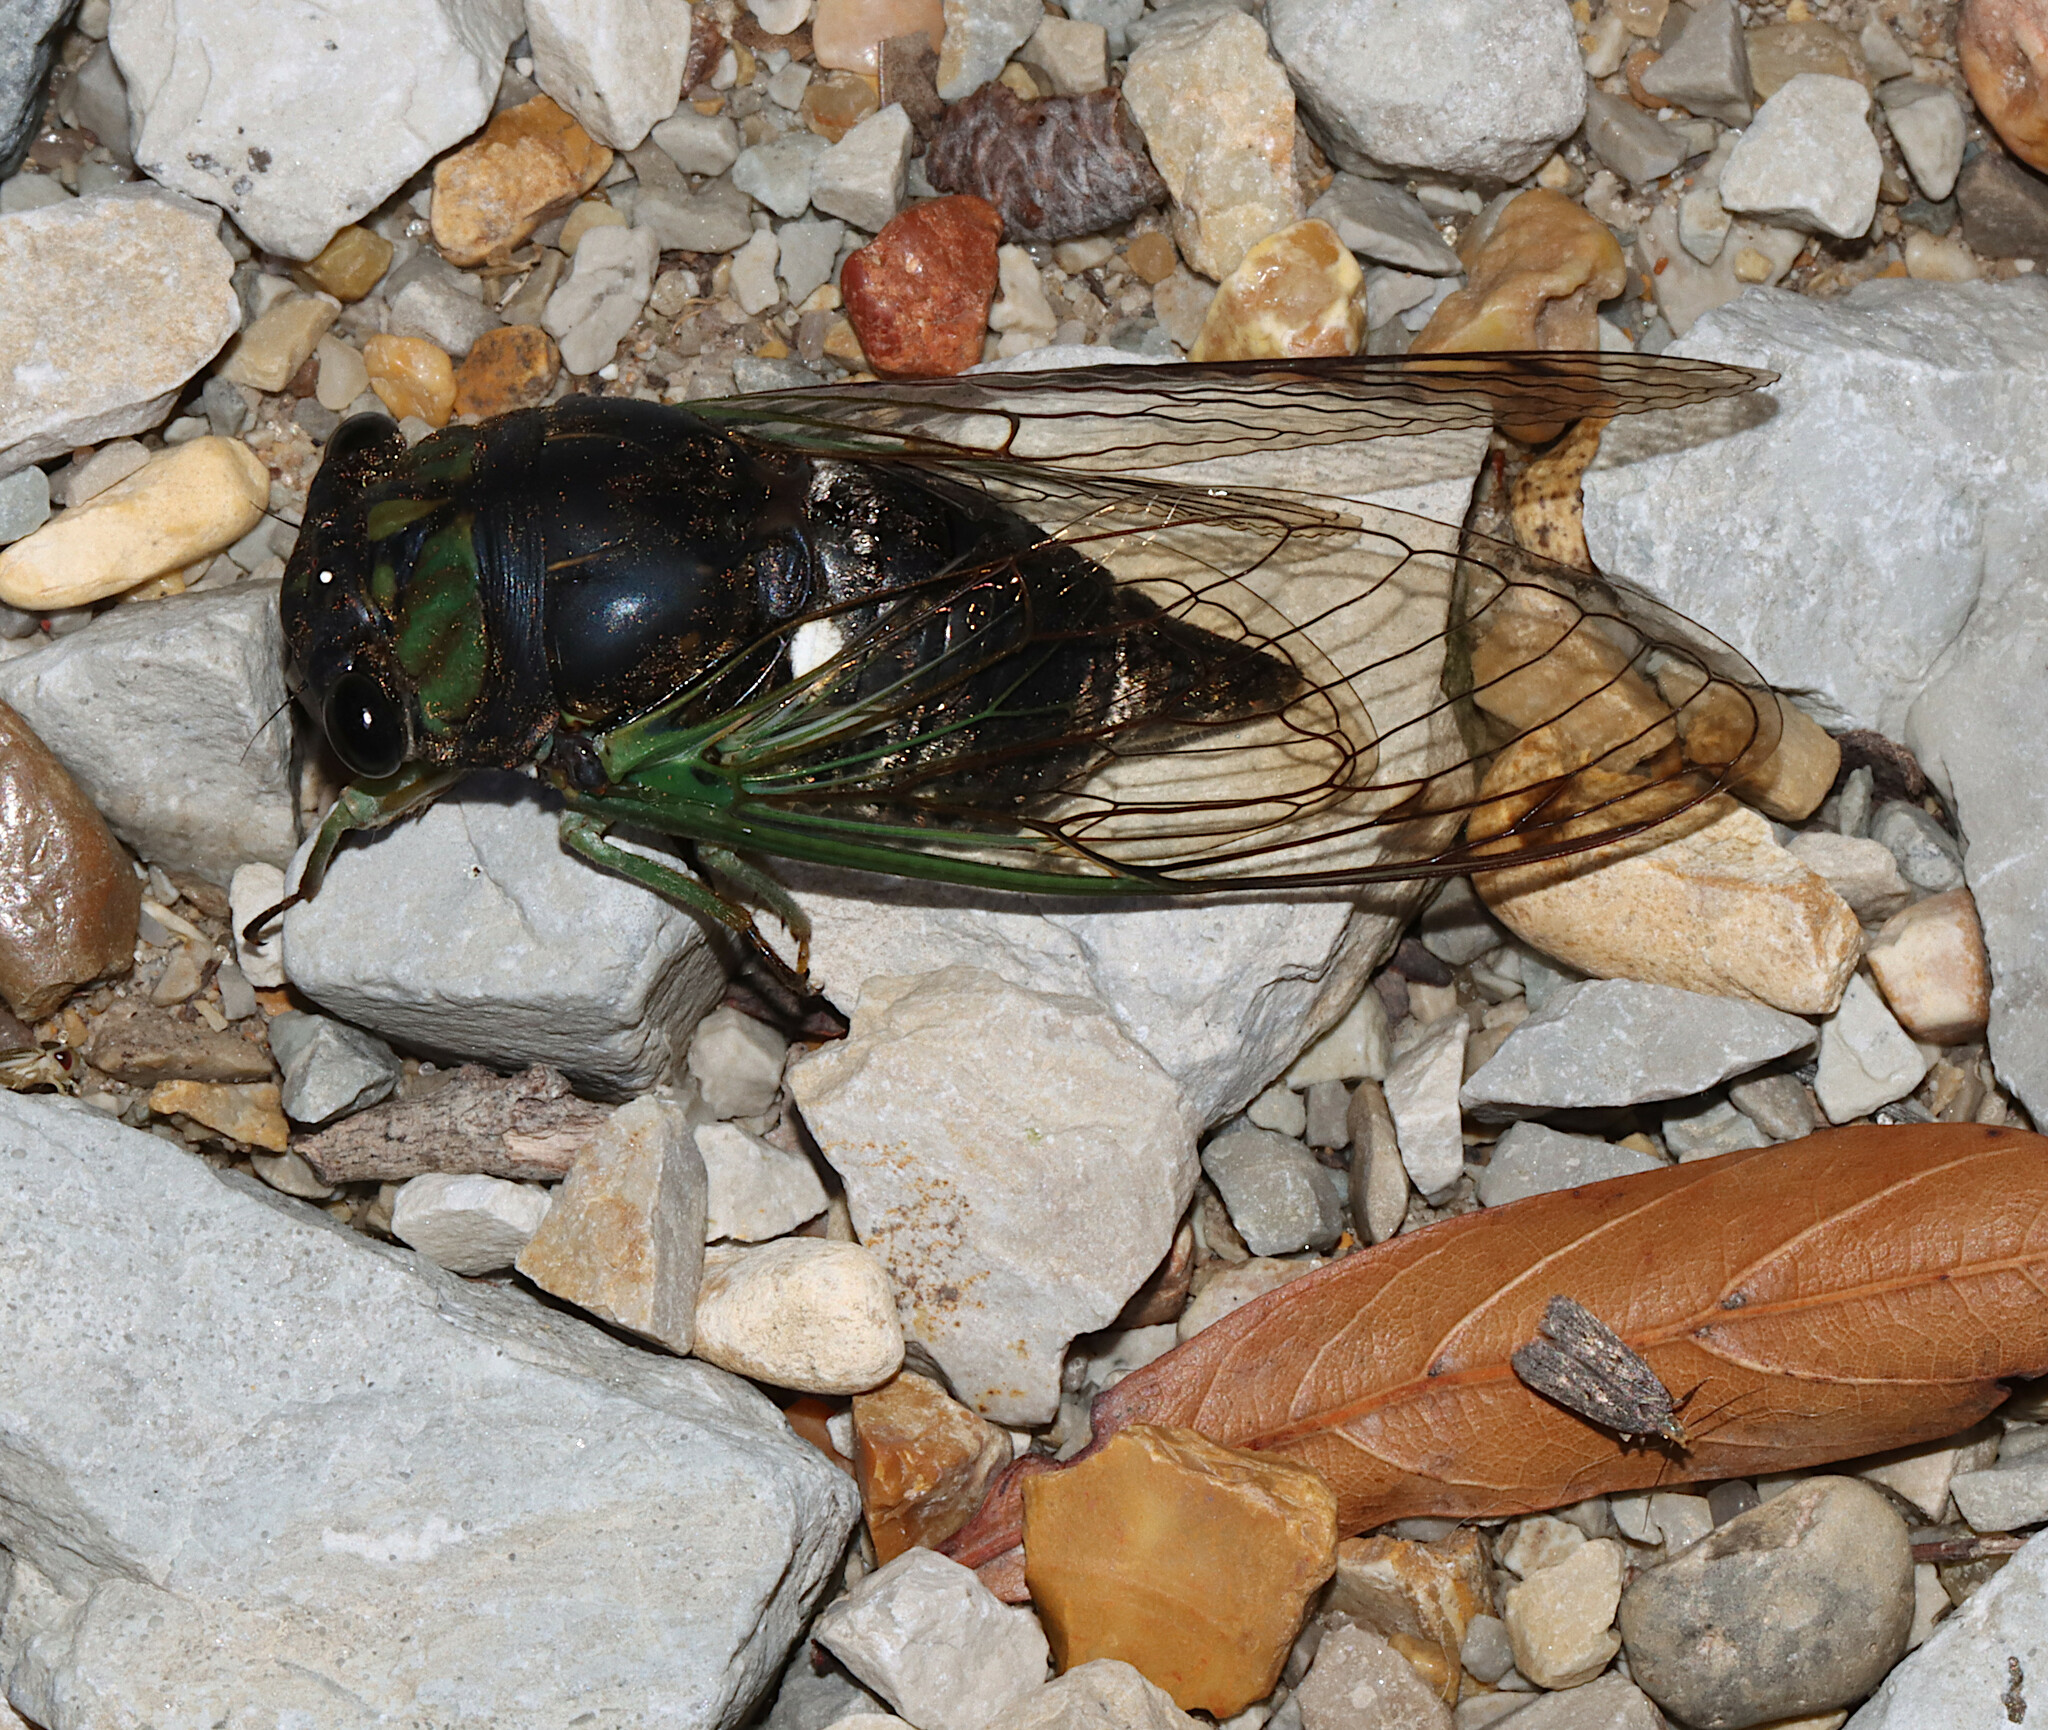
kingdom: Animalia
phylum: Arthropoda
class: Insecta
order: Hemiptera
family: Cicadidae
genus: Neotibicen
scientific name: Neotibicen tibicen
